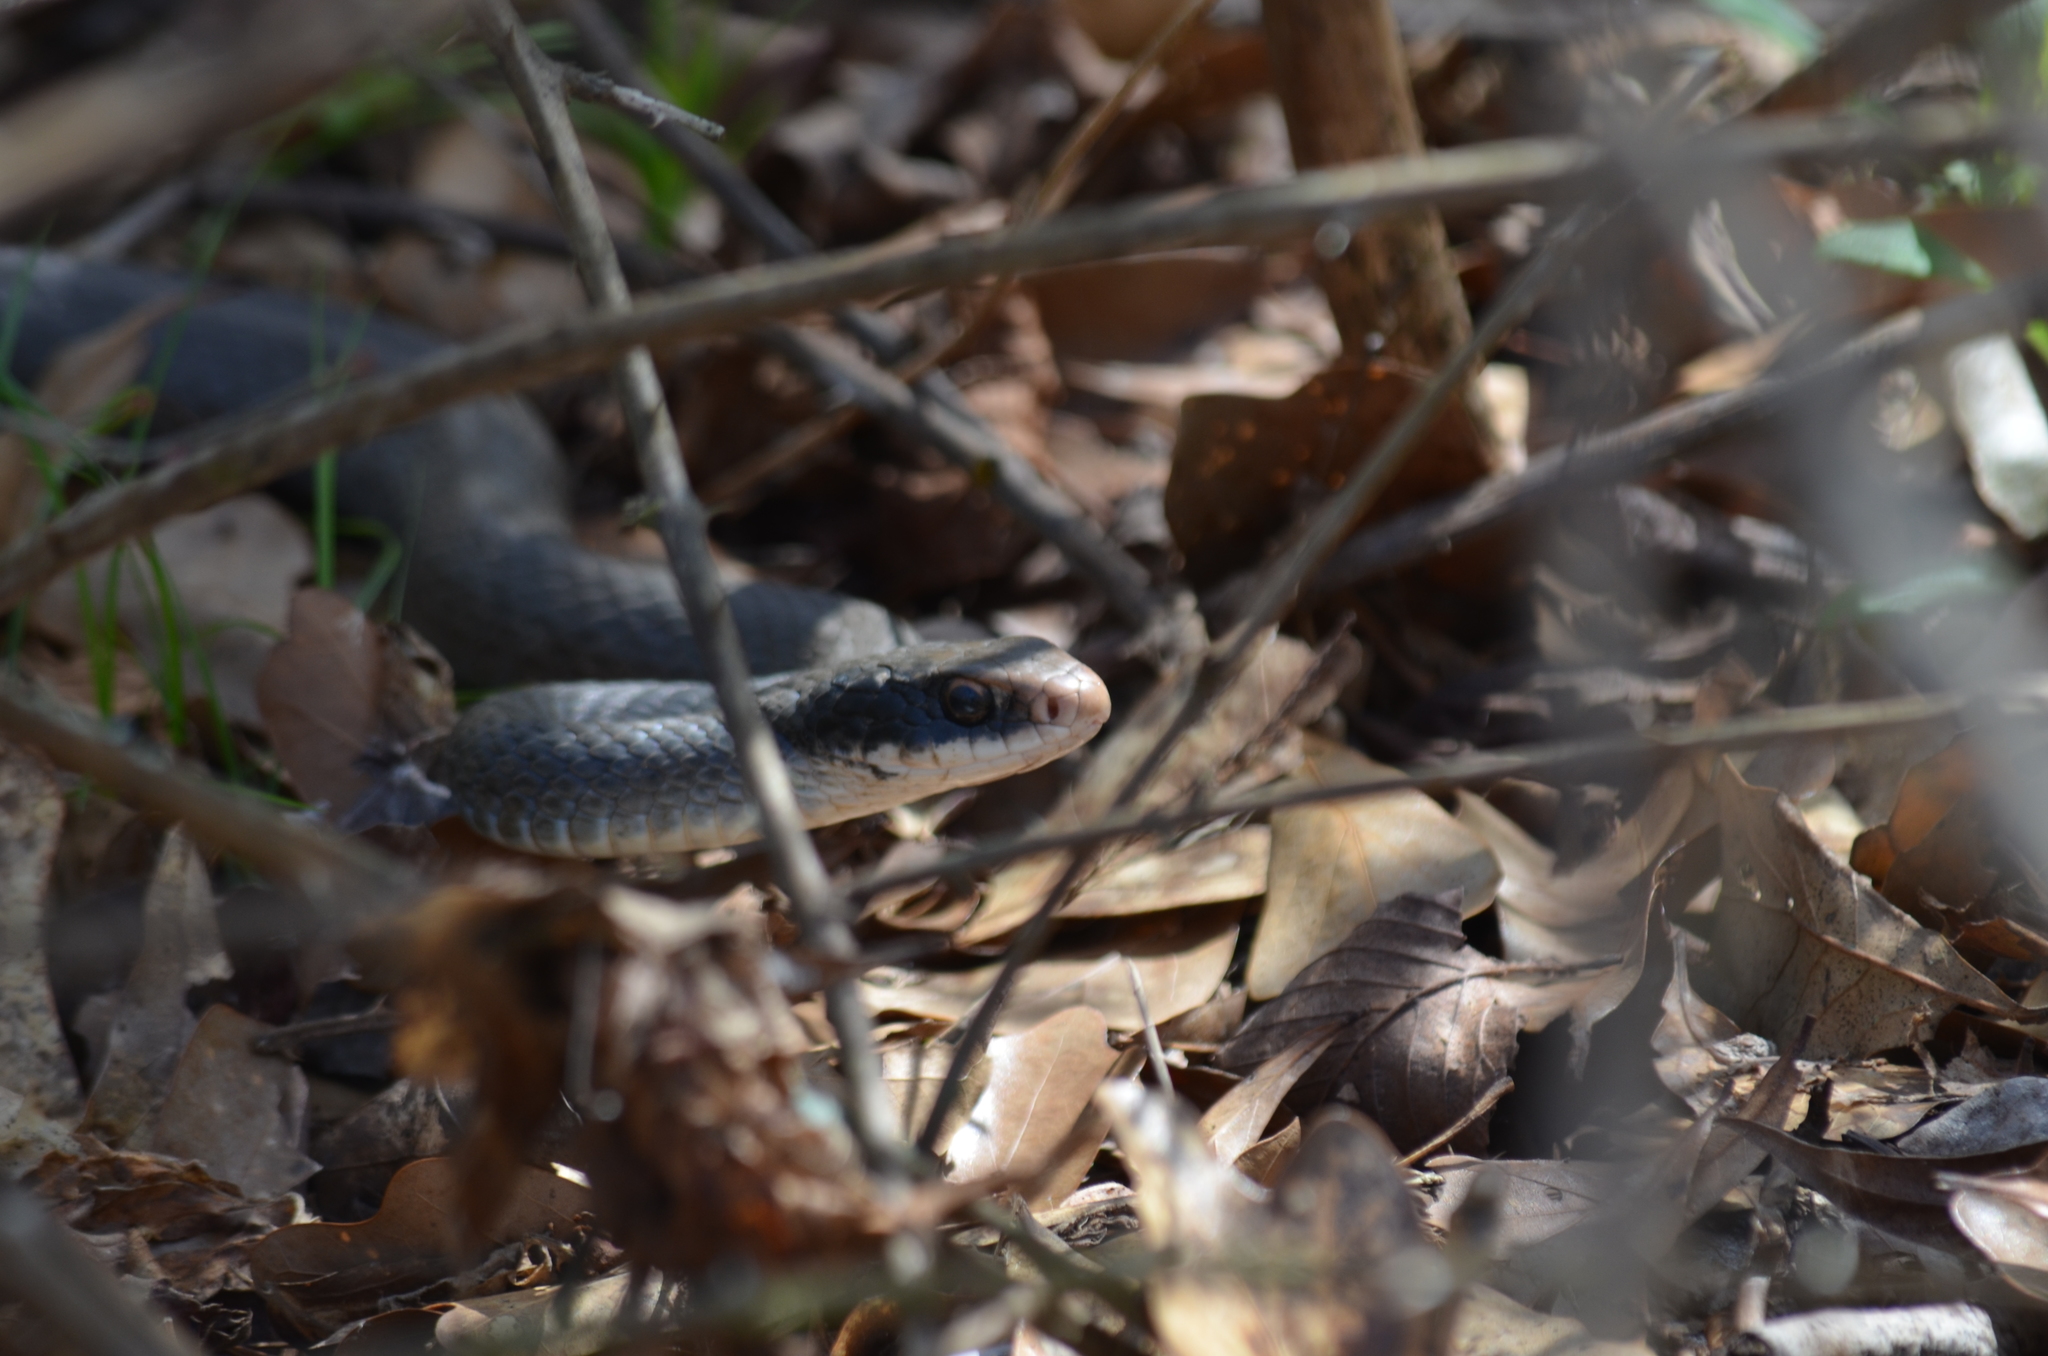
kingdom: Animalia
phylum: Chordata
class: Squamata
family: Colubridae
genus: Coluber
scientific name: Coluber constrictor
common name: Eastern racer
